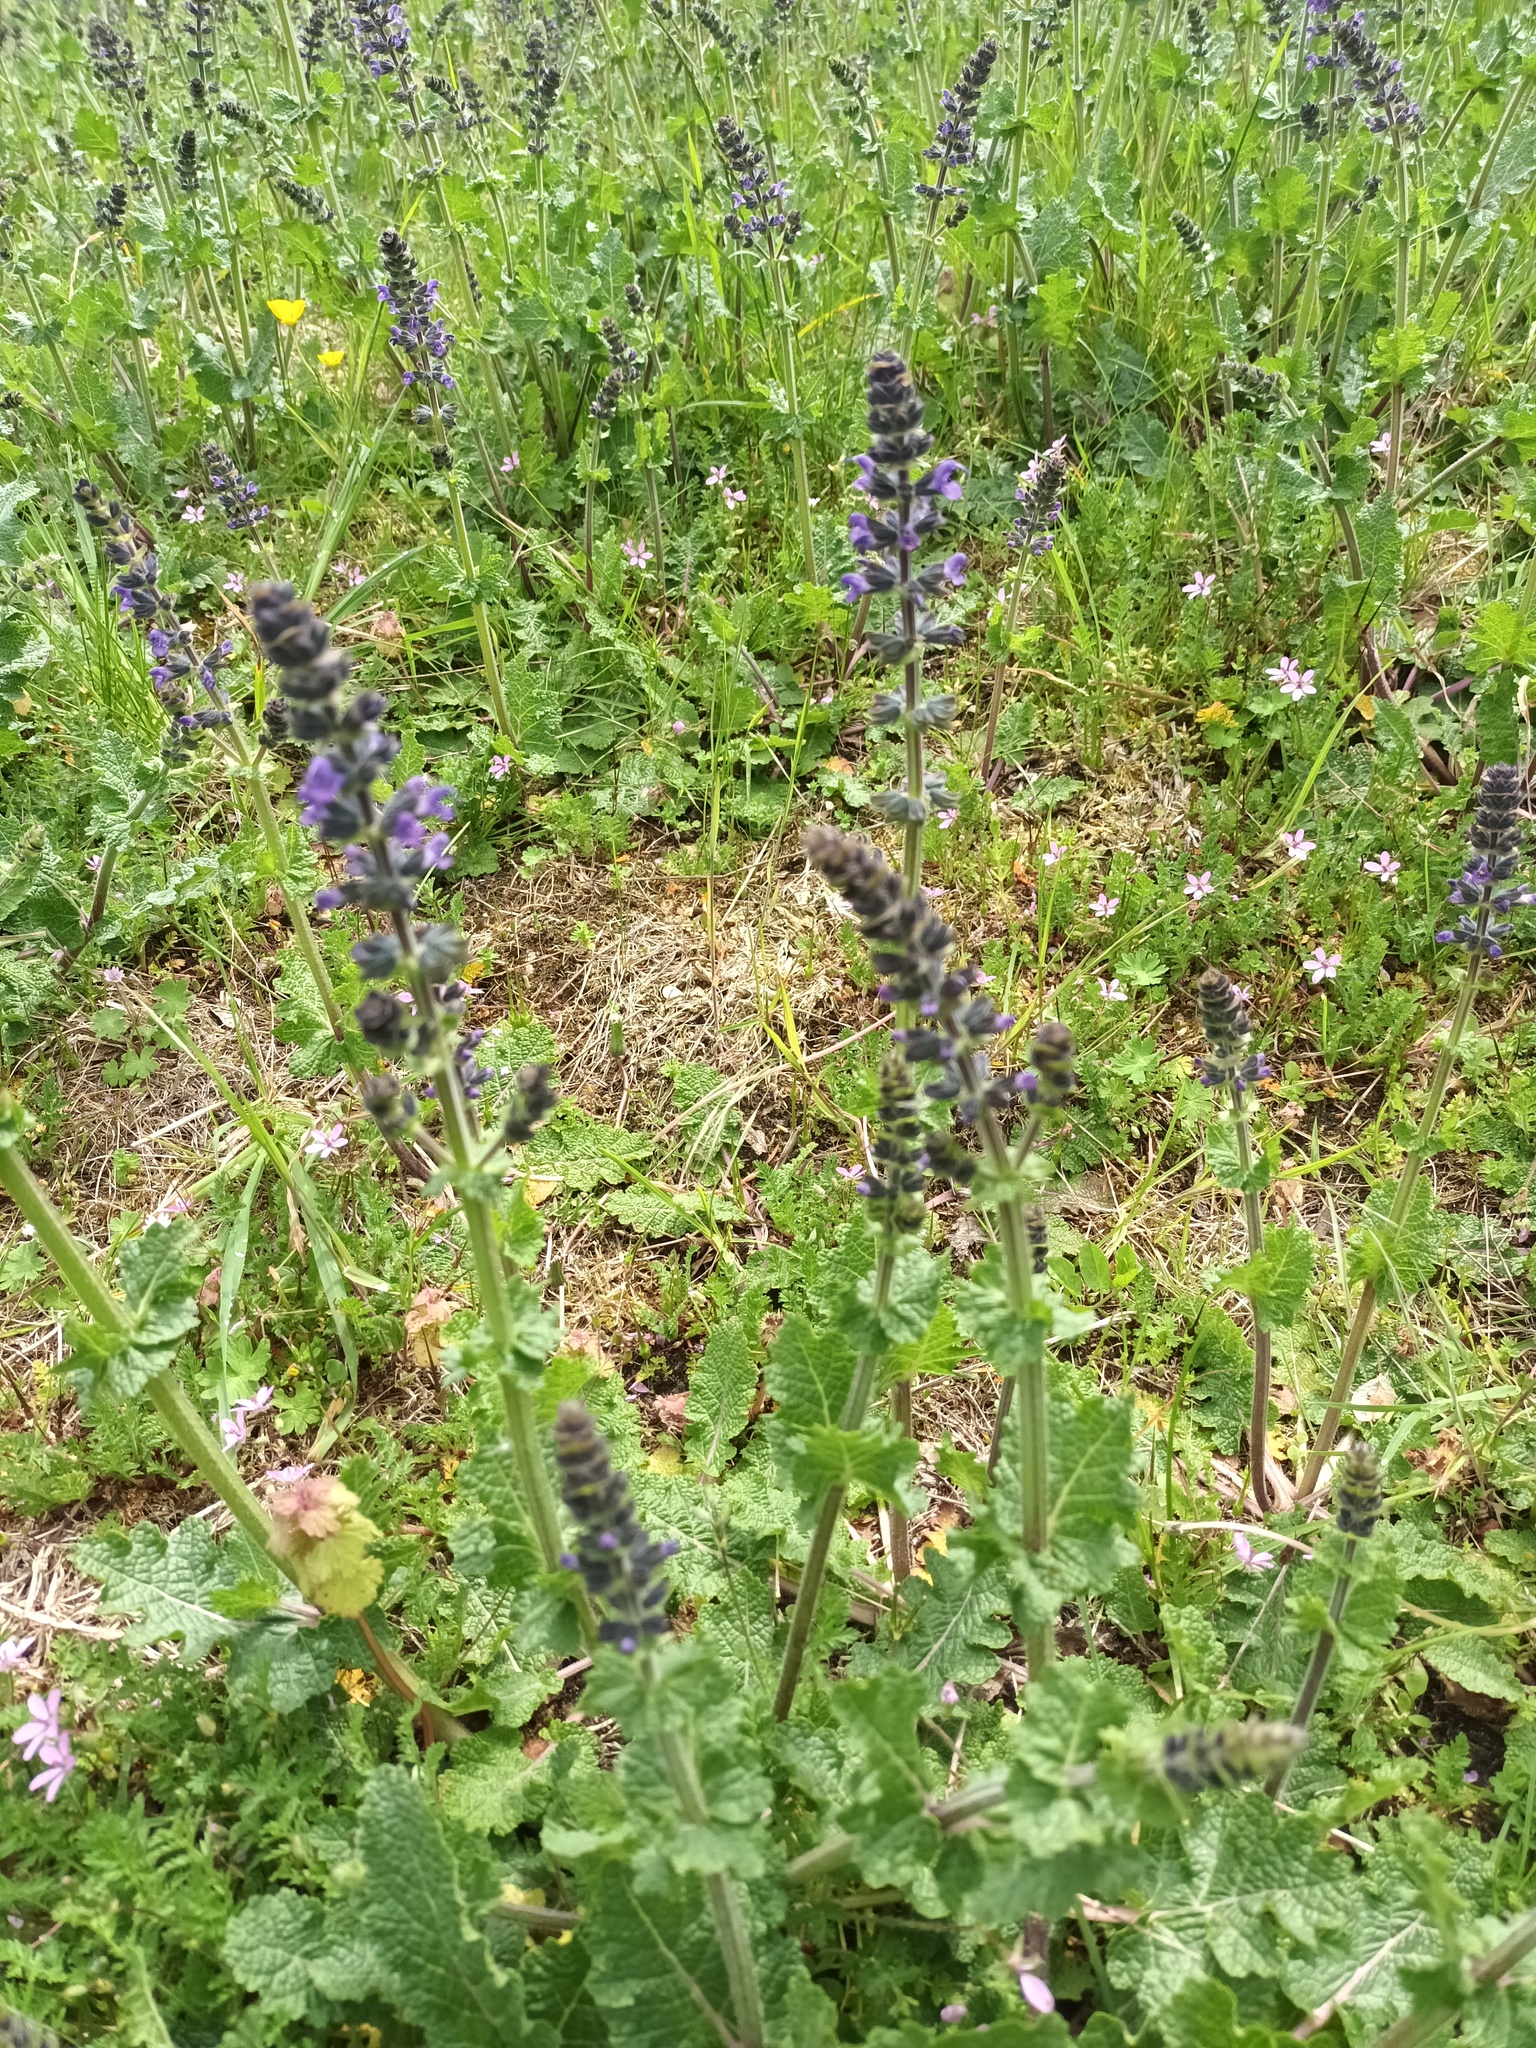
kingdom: Plantae
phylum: Tracheophyta
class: Magnoliopsida
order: Lamiales
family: Lamiaceae
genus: Salvia
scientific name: Salvia verbenaca
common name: Wild clary
